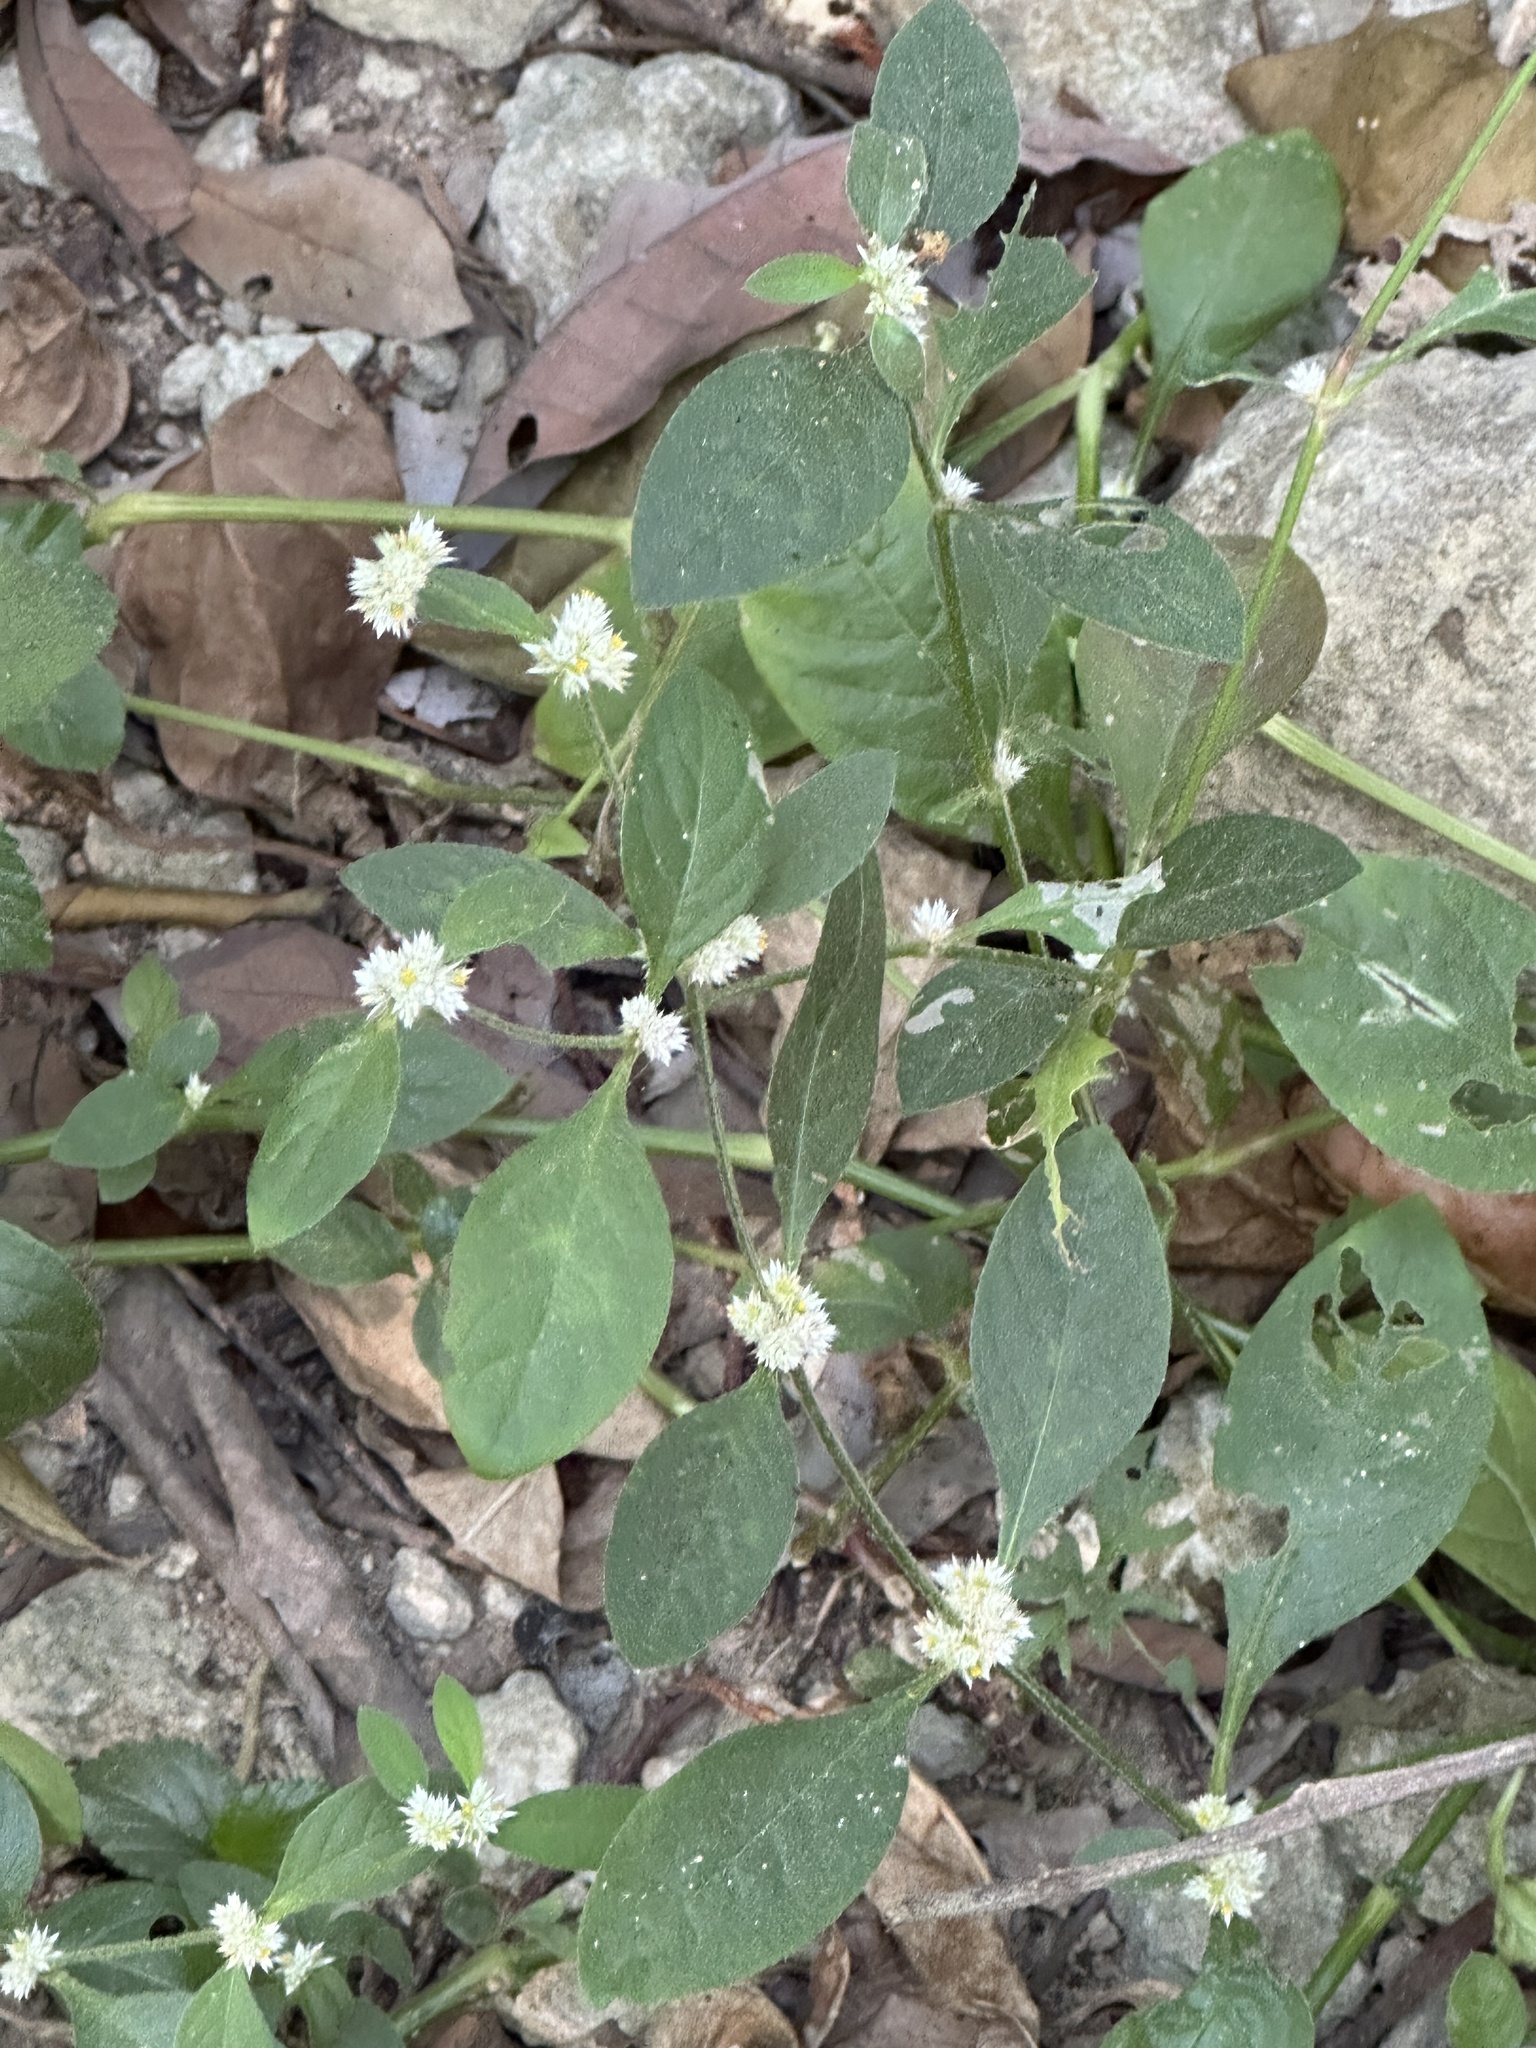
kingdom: Plantae
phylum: Tracheophyta
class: Magnoliopsida
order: Caryophyllales
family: Amaranthaceae
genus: Alternanthera
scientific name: Alternanthera ficoidea
